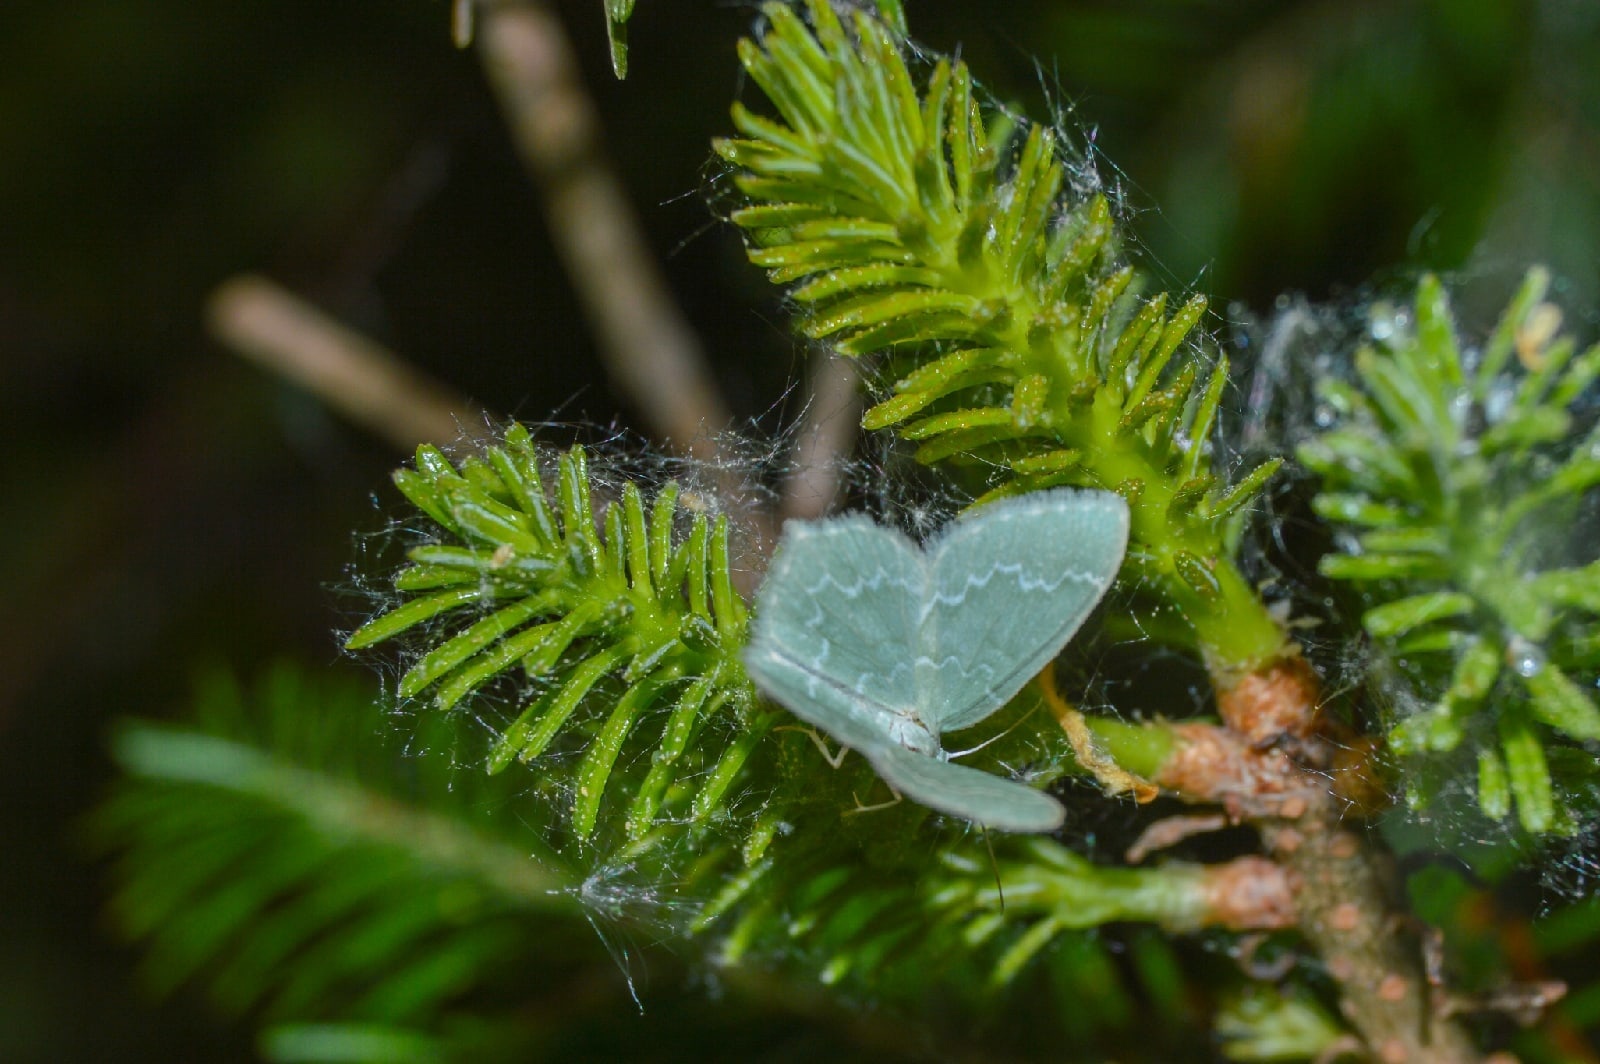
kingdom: Animalia
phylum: Arthropoda
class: Insecta
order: Lepidoptera
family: Geometridae
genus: Jodis
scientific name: Jodis putata
